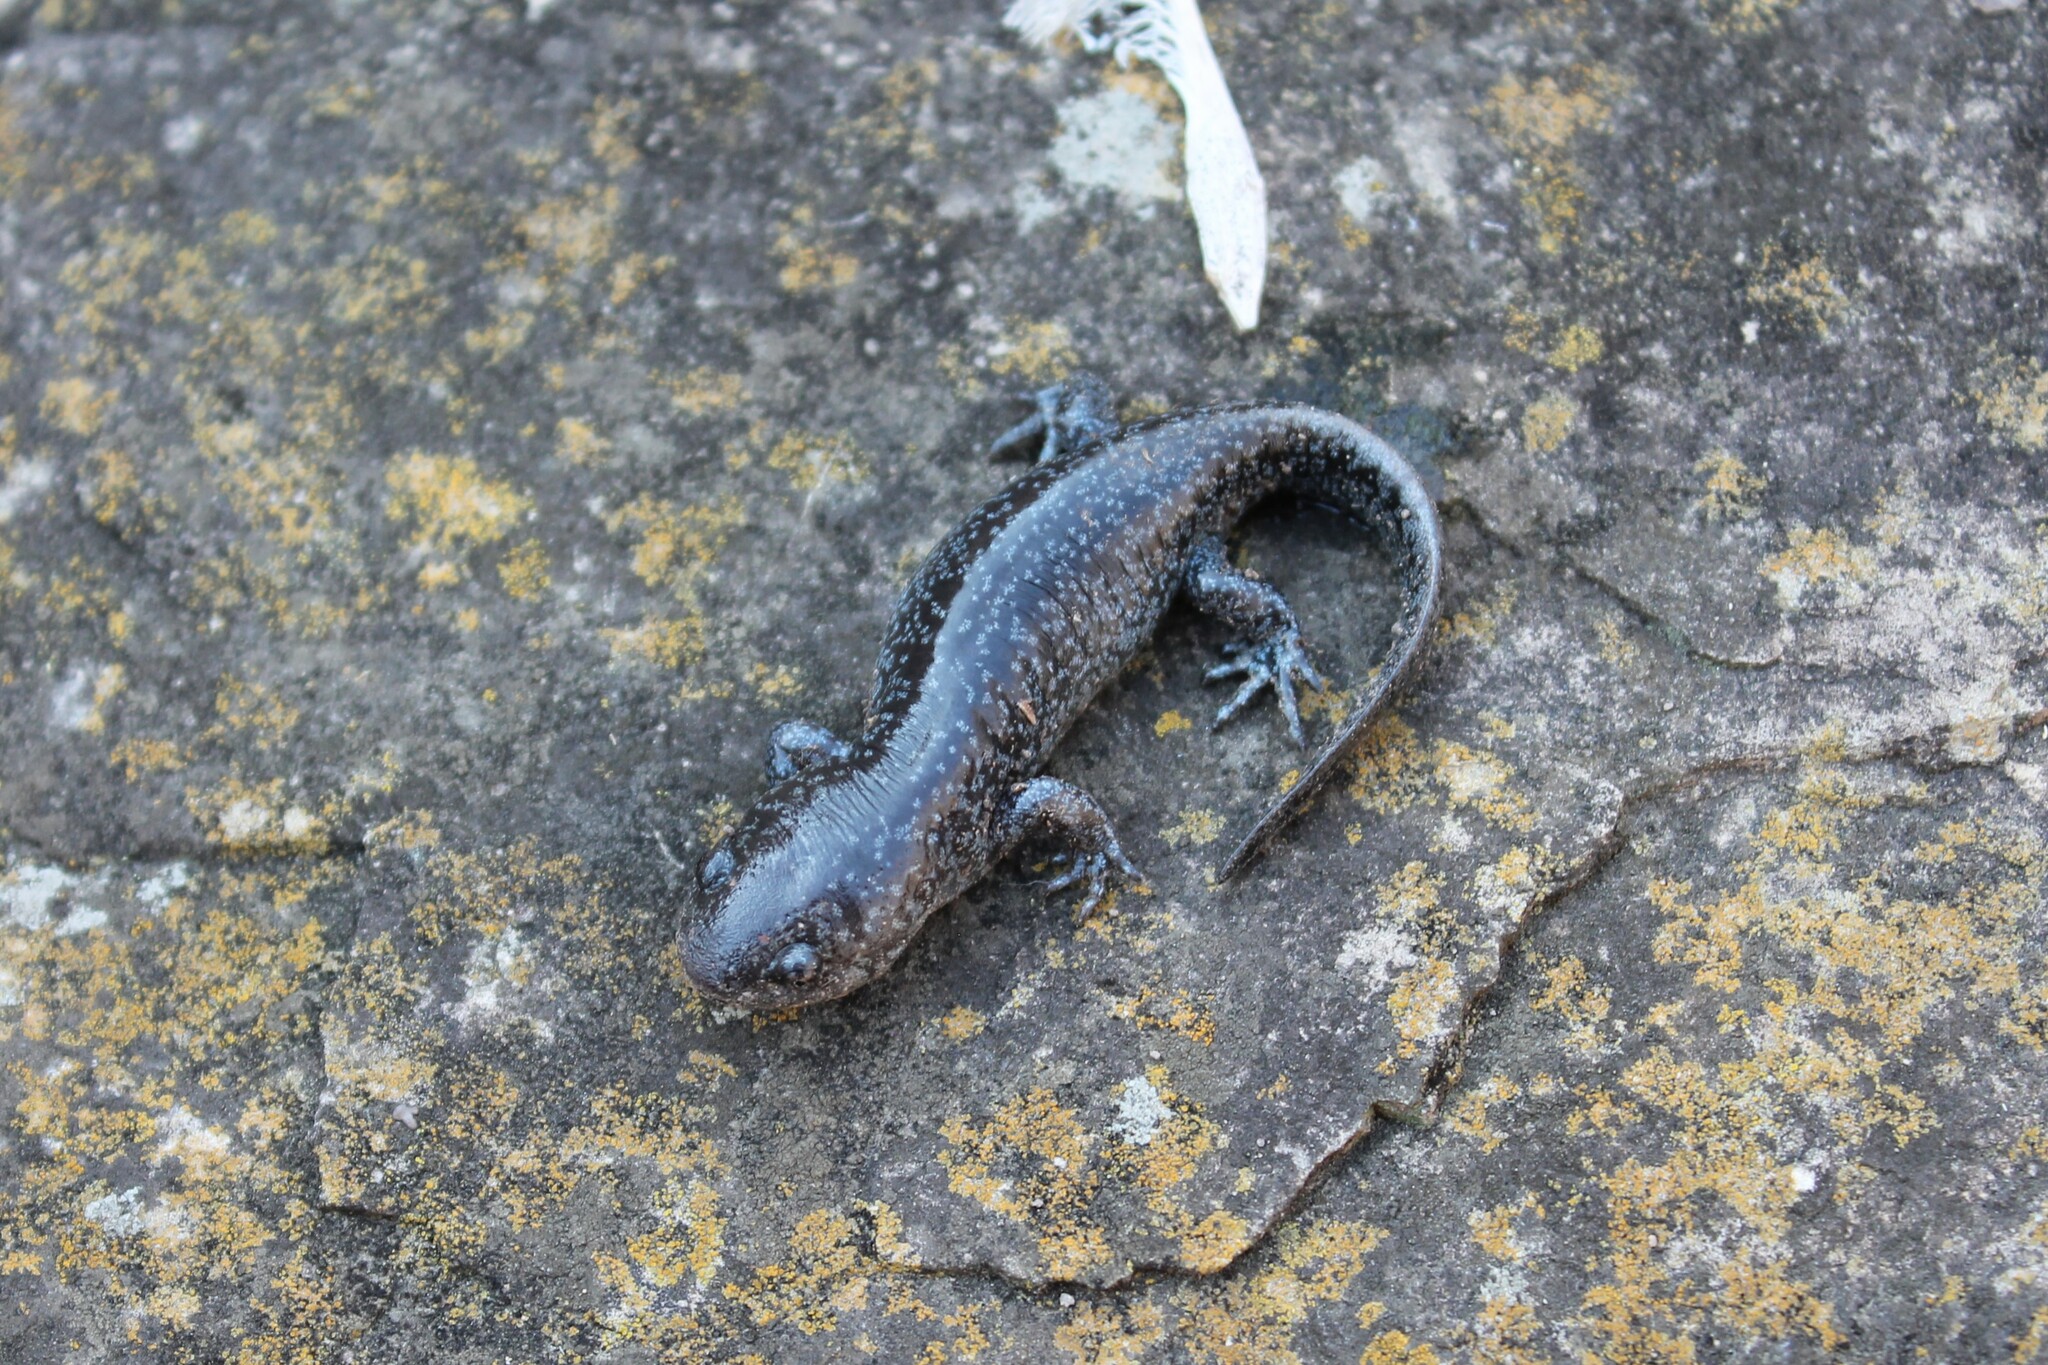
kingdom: Animalia
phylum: Chordata
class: Amphibia
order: Caudata
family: Ambystomatidae
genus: Ambystoma
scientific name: Ambystoma talpoideum
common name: Mole salamander
